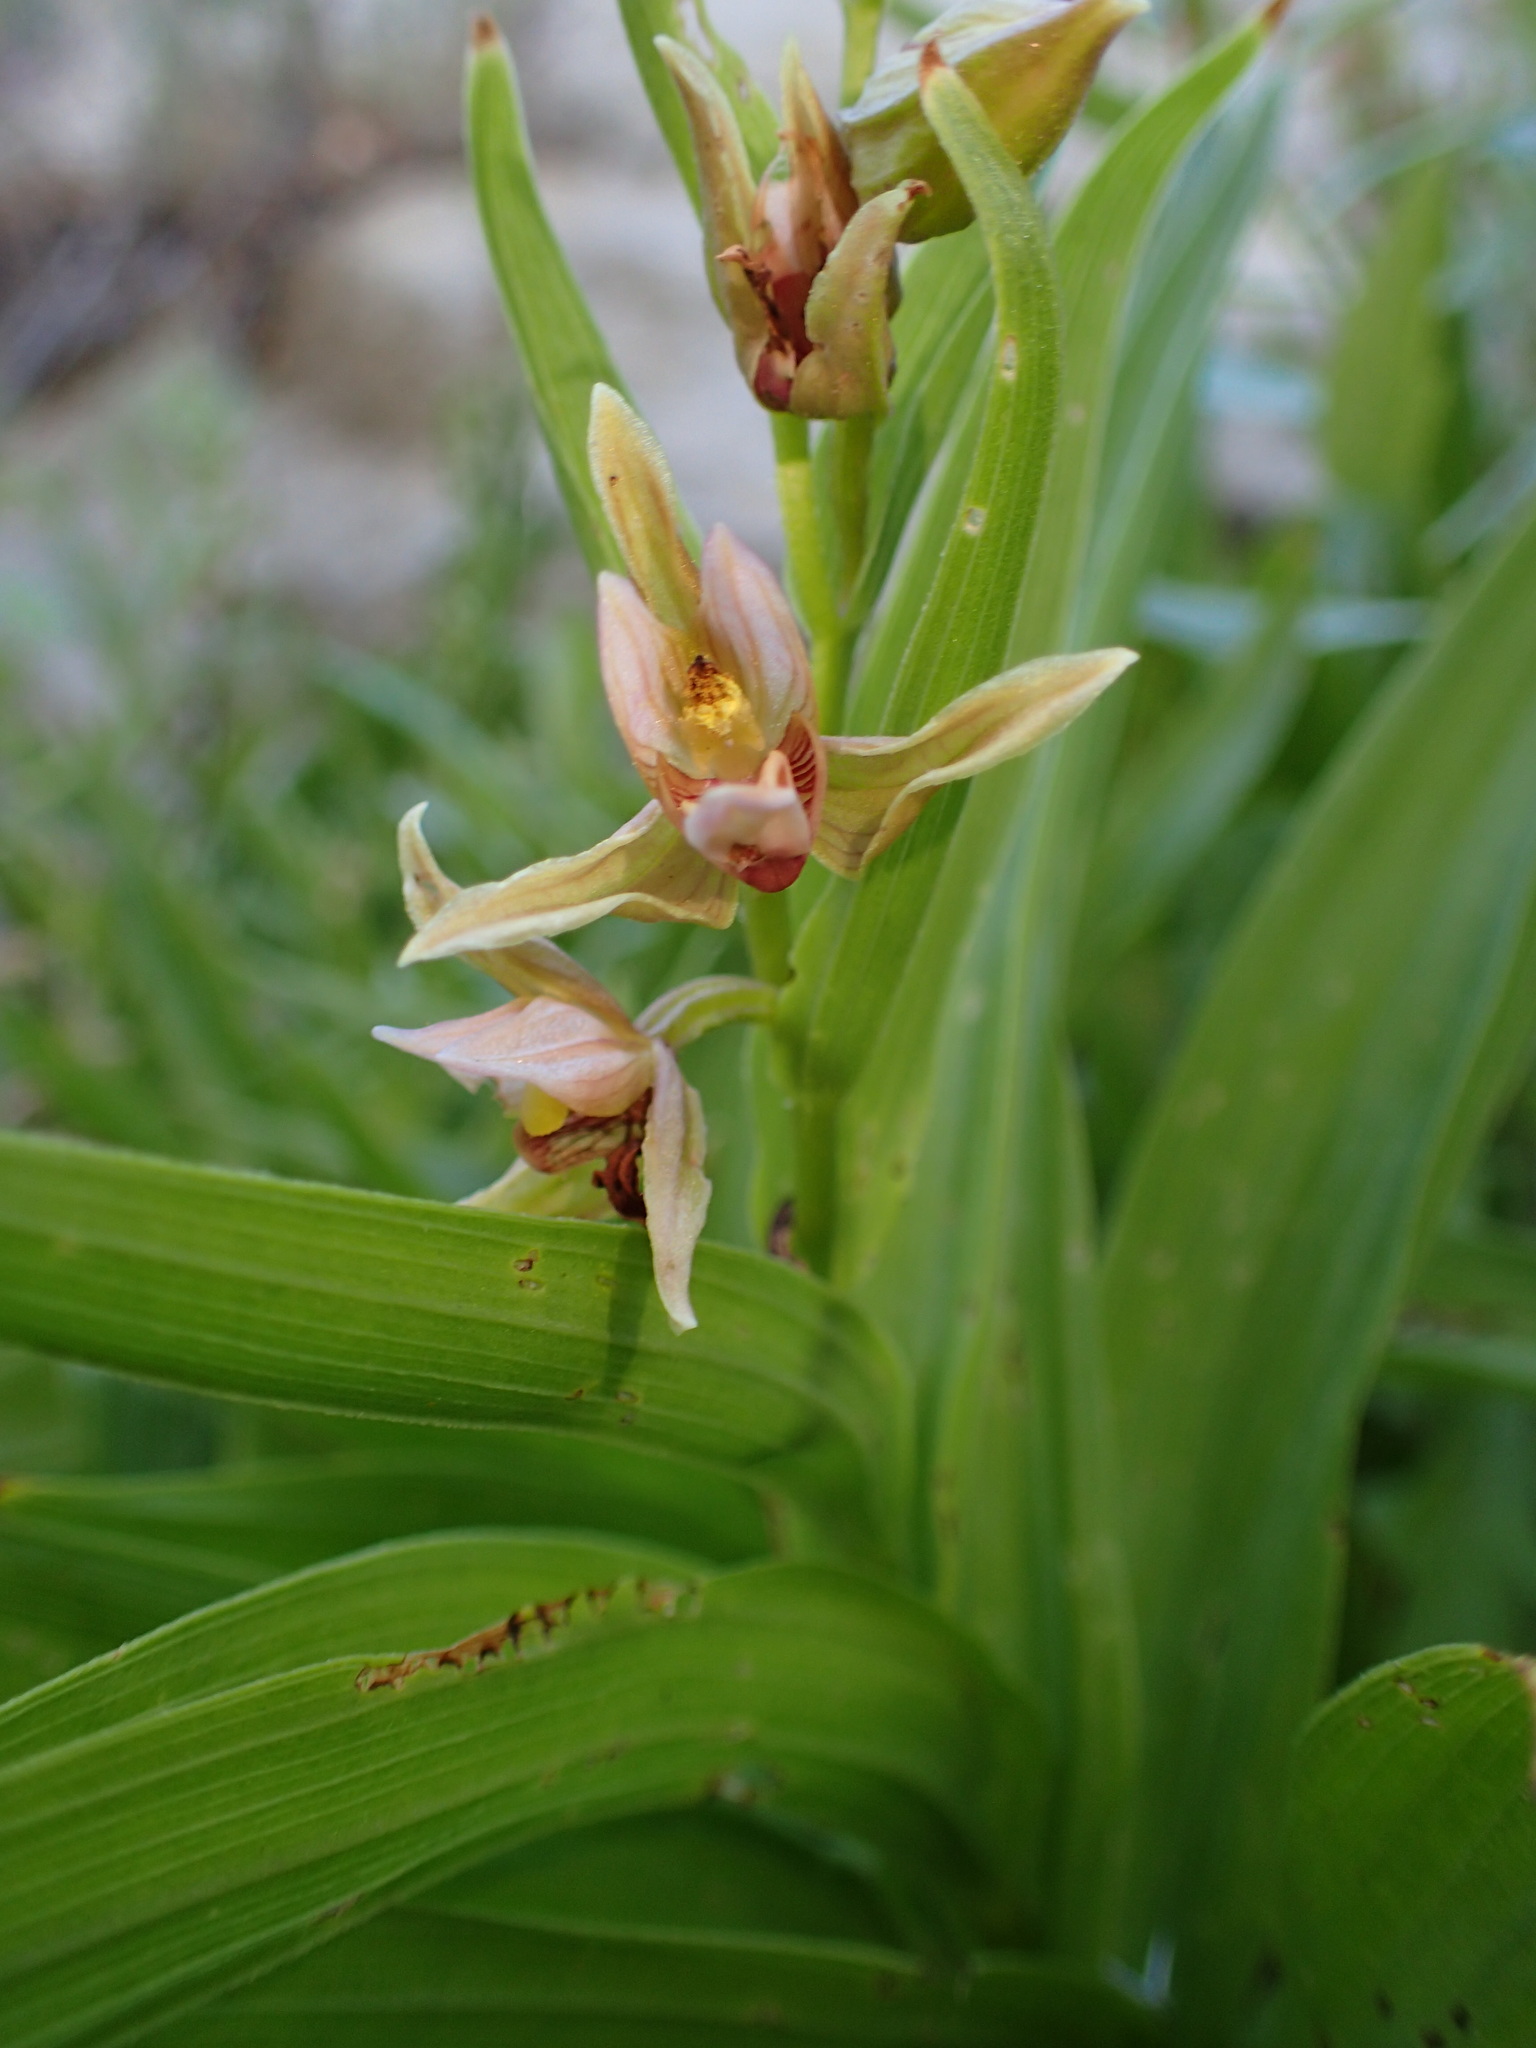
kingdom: Plantae
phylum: Tracheophyta
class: Liliopsida
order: Asparagales
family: Orchidaceae
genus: Epipactis
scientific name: Epipactis gigantea
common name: Chatterbox
